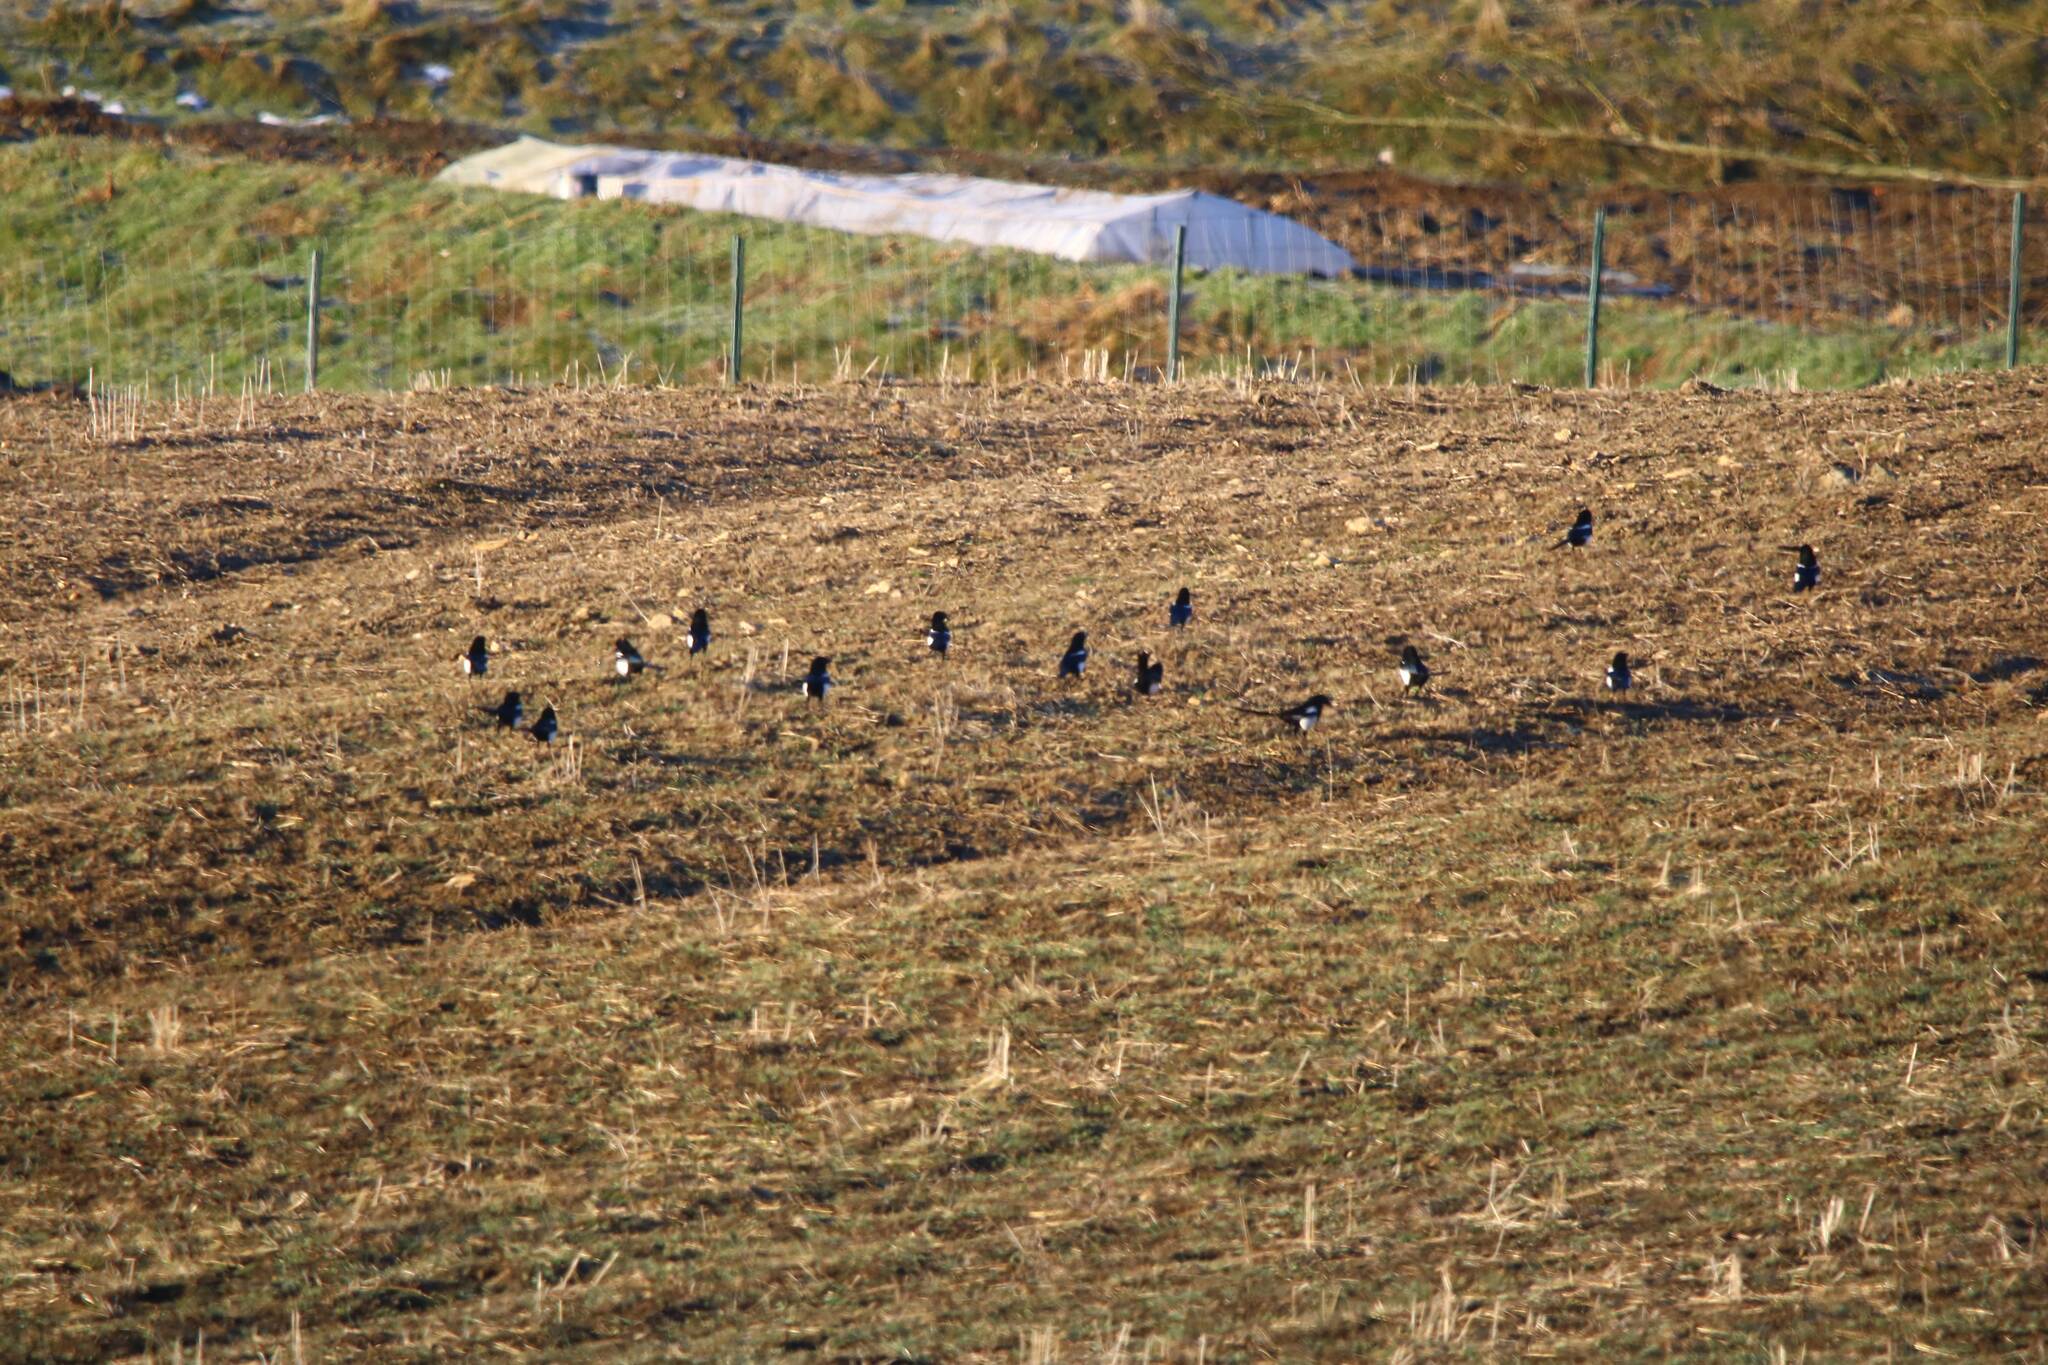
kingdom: Animalia
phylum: Chordata
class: Aves
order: Passeriformes
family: Corvidae
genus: Pica
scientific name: Pica mauritanica
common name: Maghreb magpie
